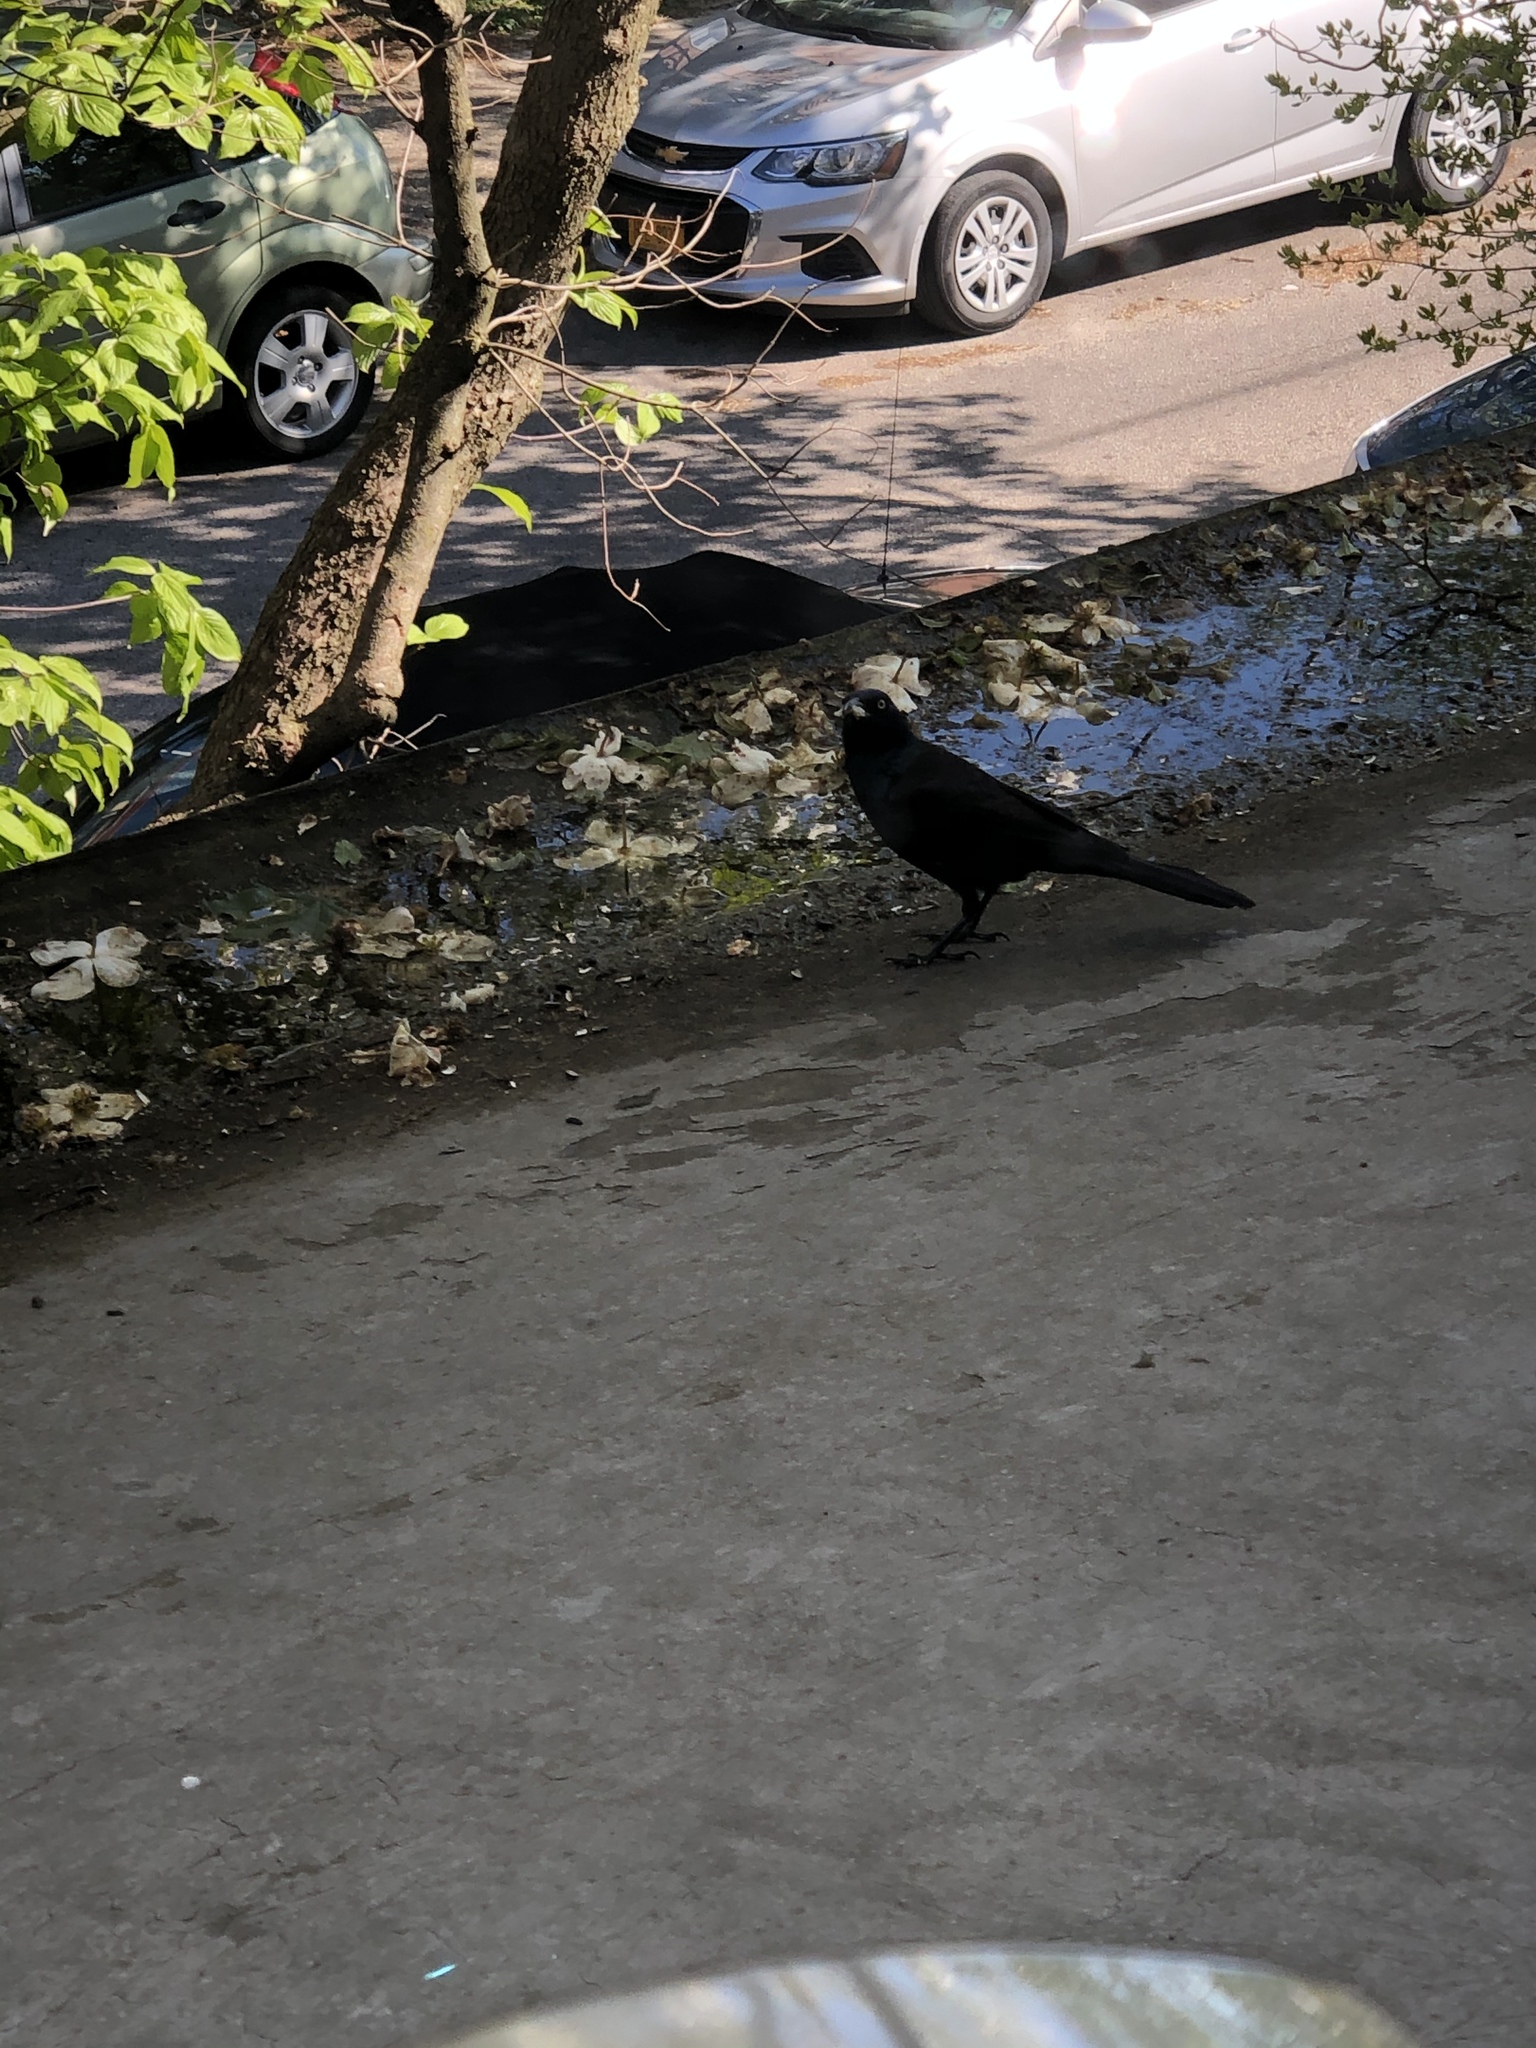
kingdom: Animalia
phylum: Chordata
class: Aves
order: Passeriformes
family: Icteridae
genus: Quiscalus
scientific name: Quiscalus quiscula
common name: Common grackle
